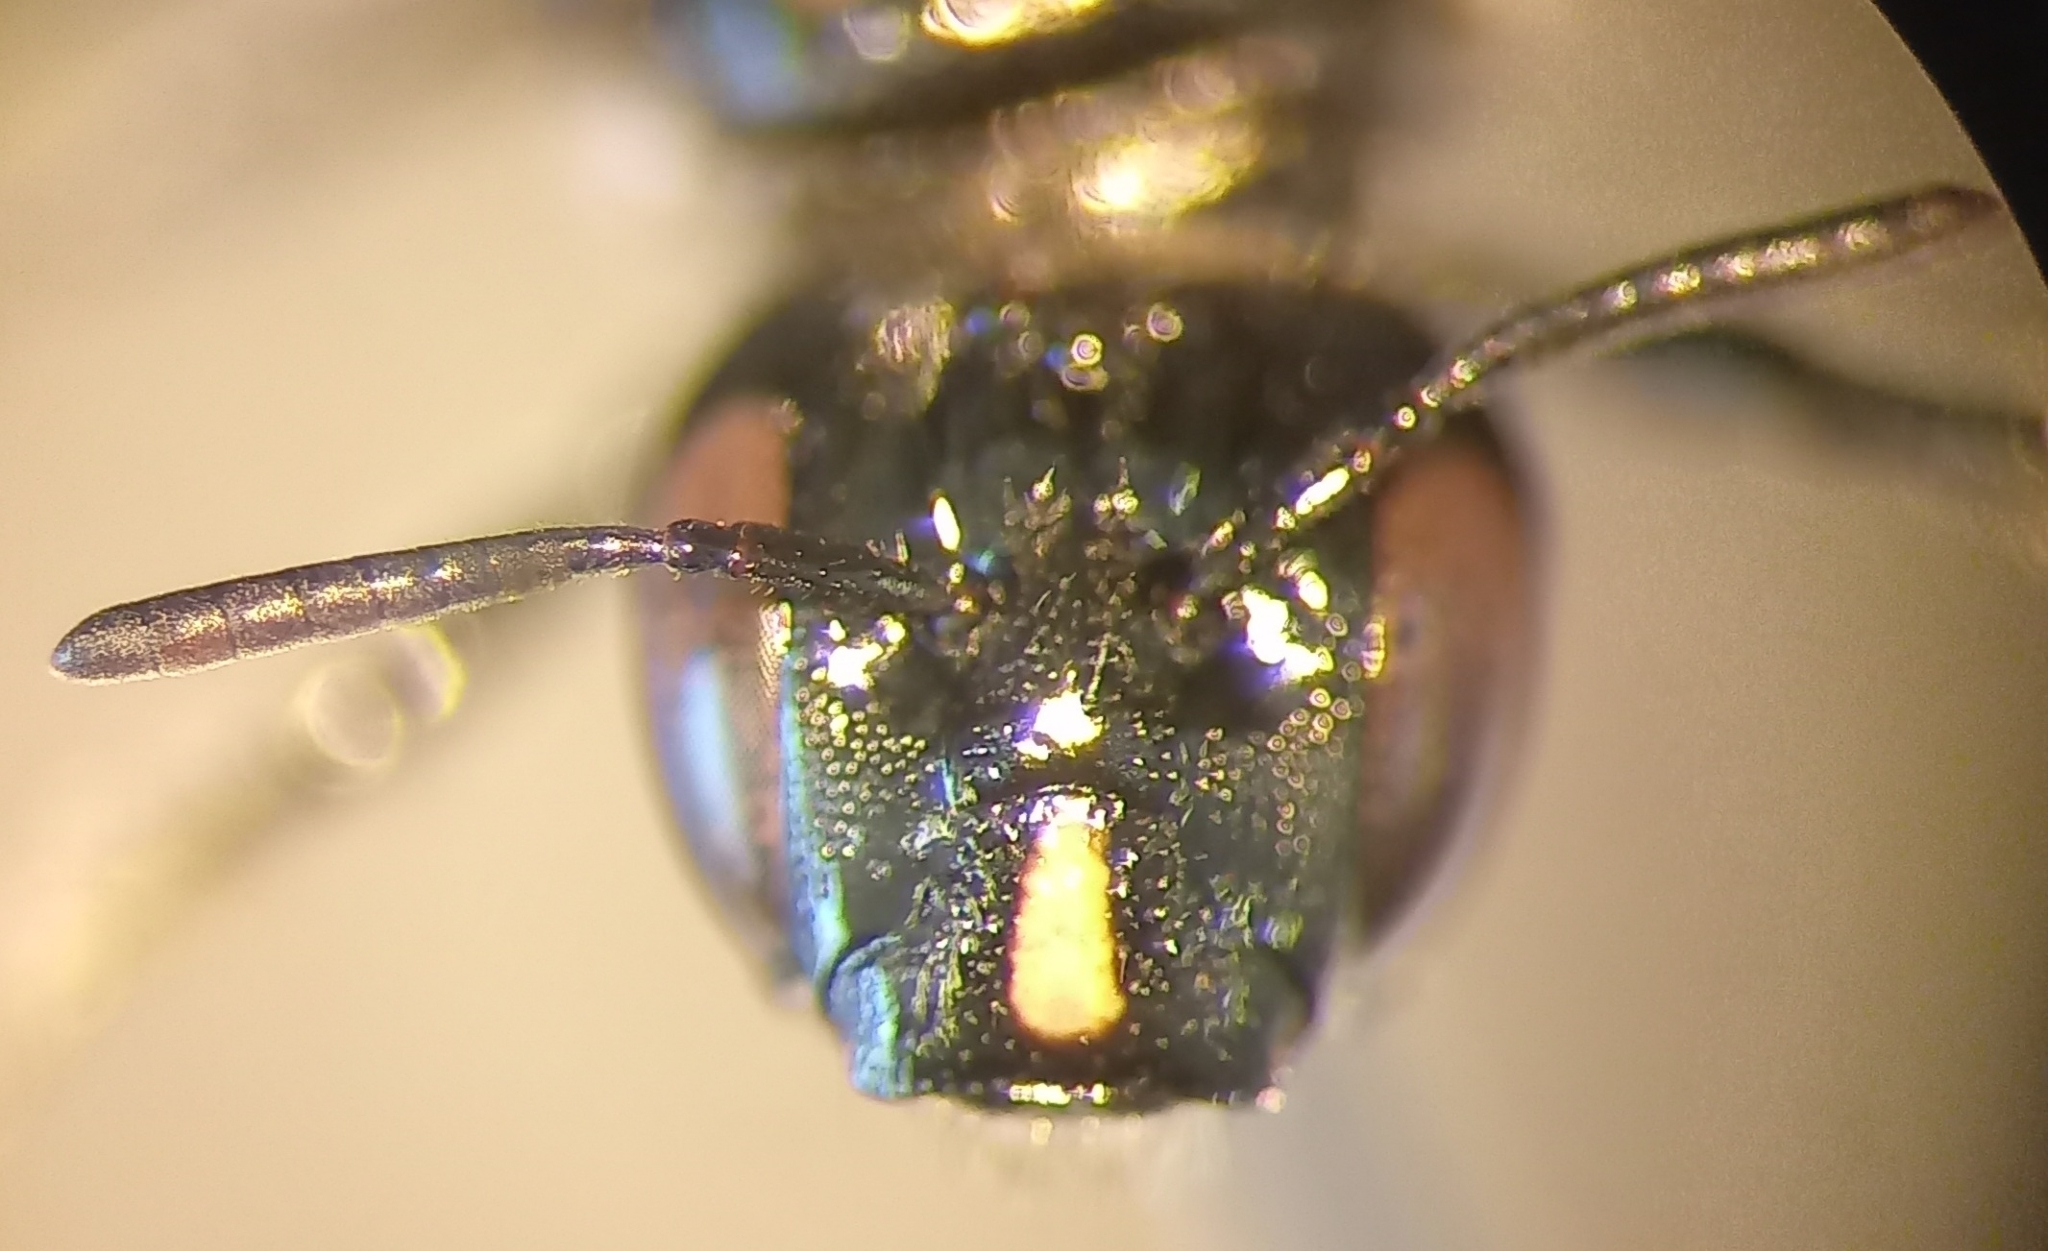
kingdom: Animalia
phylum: Arthropoda
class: Insecta
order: Hymenoptera
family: Apidae
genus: Ceratina
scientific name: Ceratina cucurbitina
